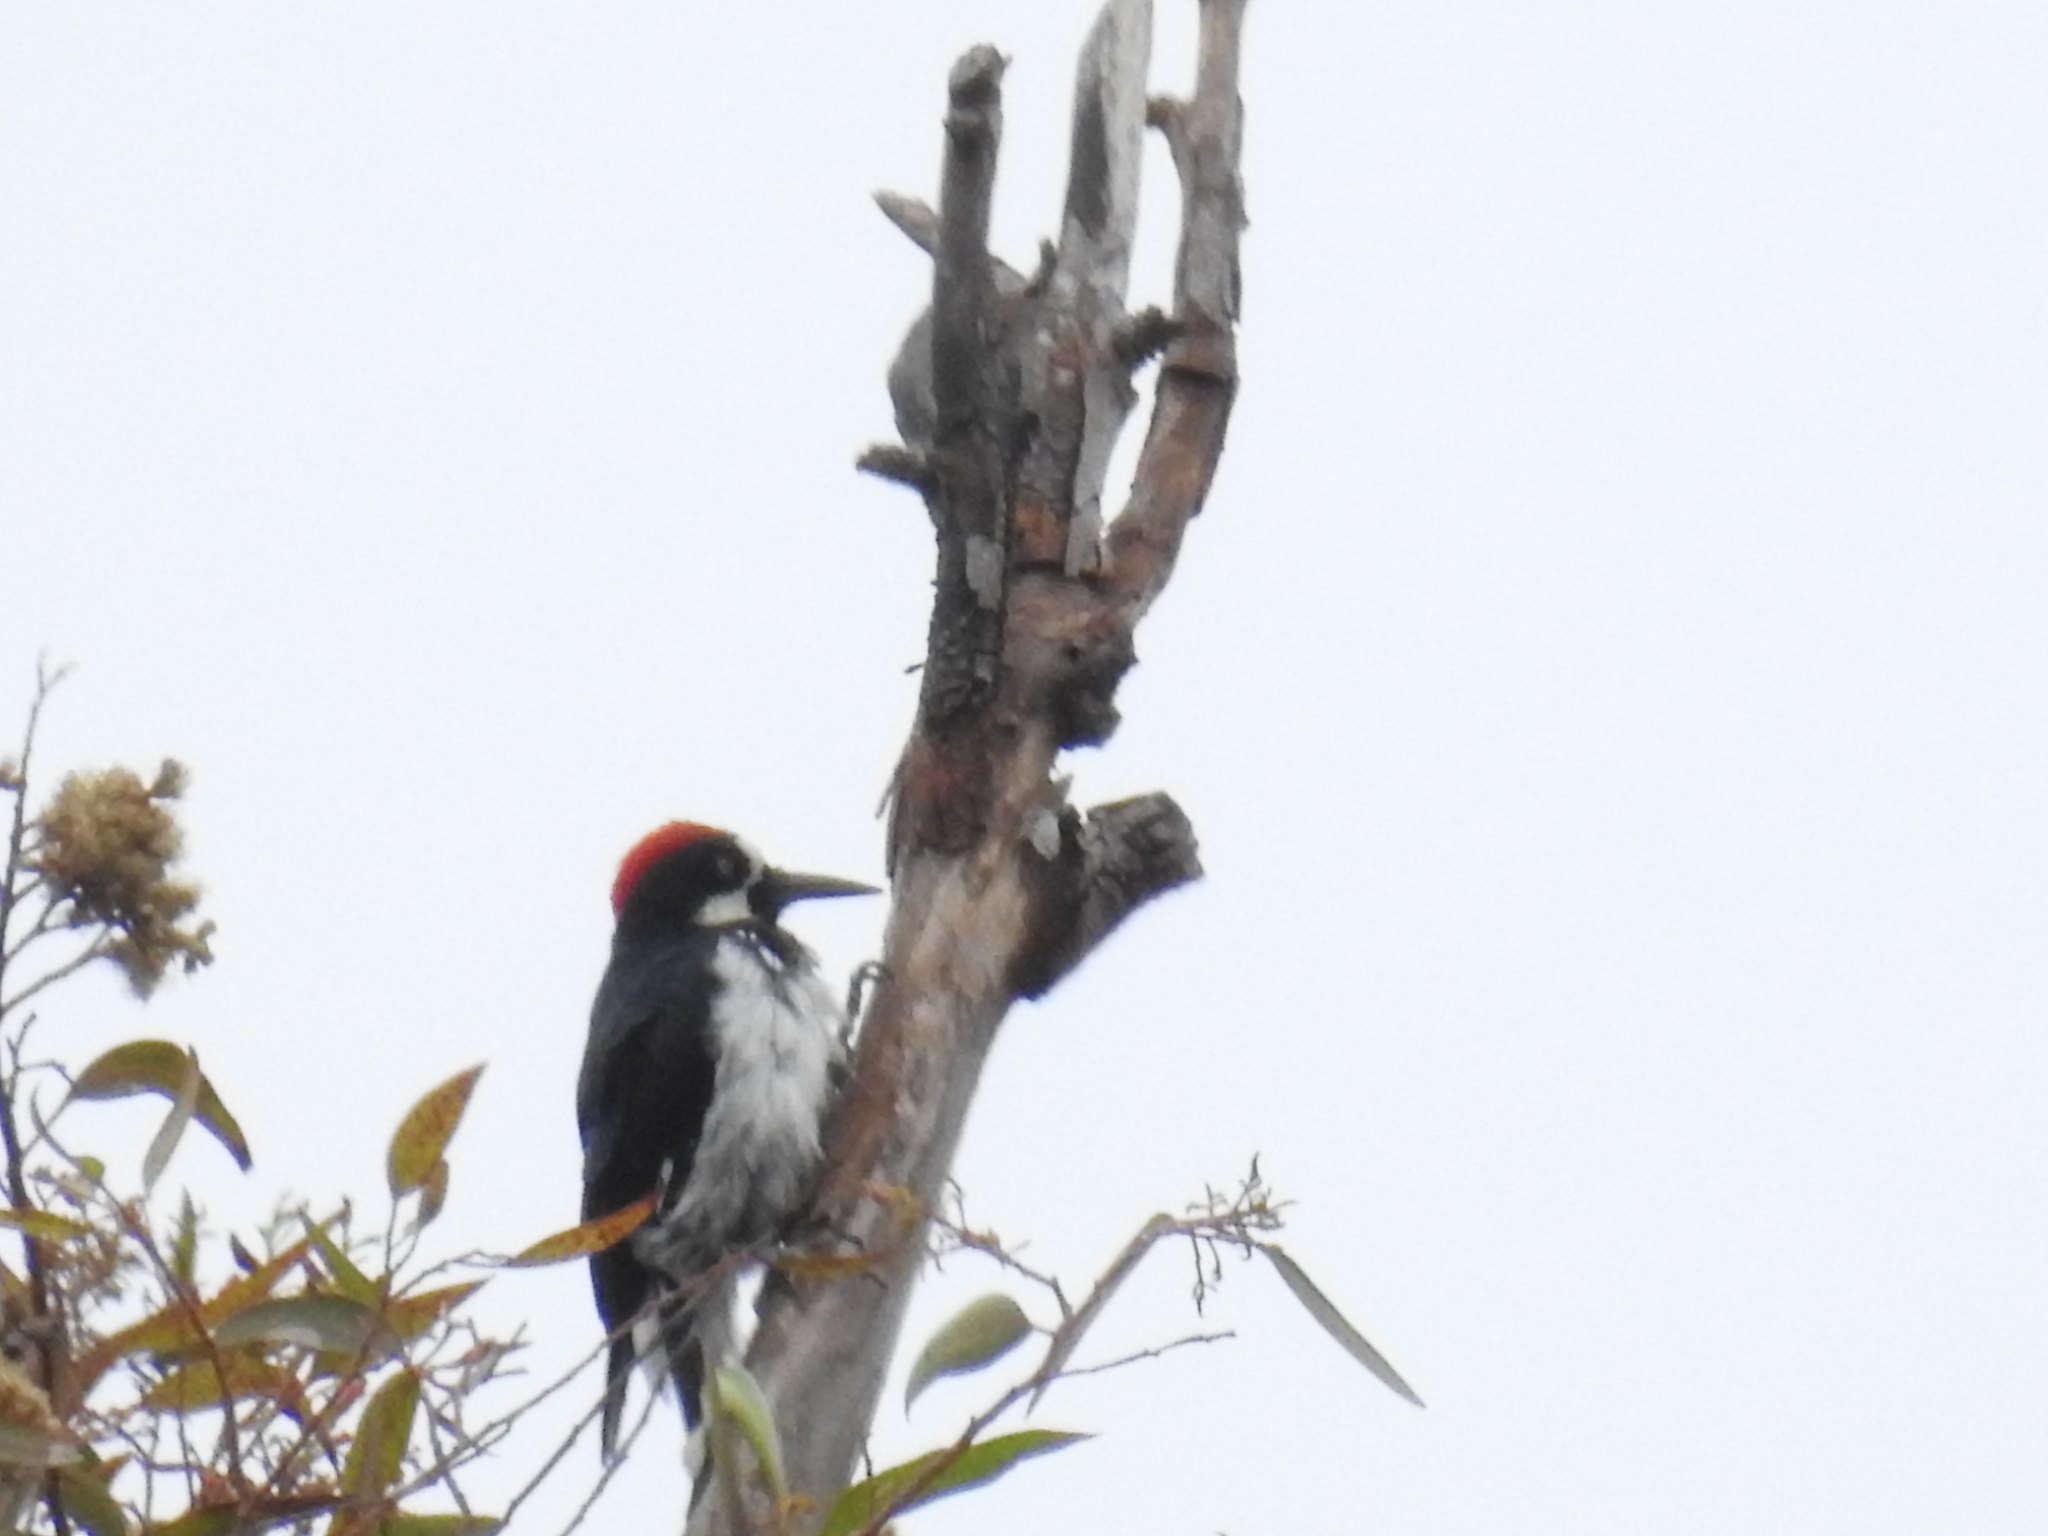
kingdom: Animalia
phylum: Chordata
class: Aves
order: Piciformes
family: Picidae
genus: Melanerpes
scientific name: Melanerpes formicivorus
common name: Acorn woodpecker
